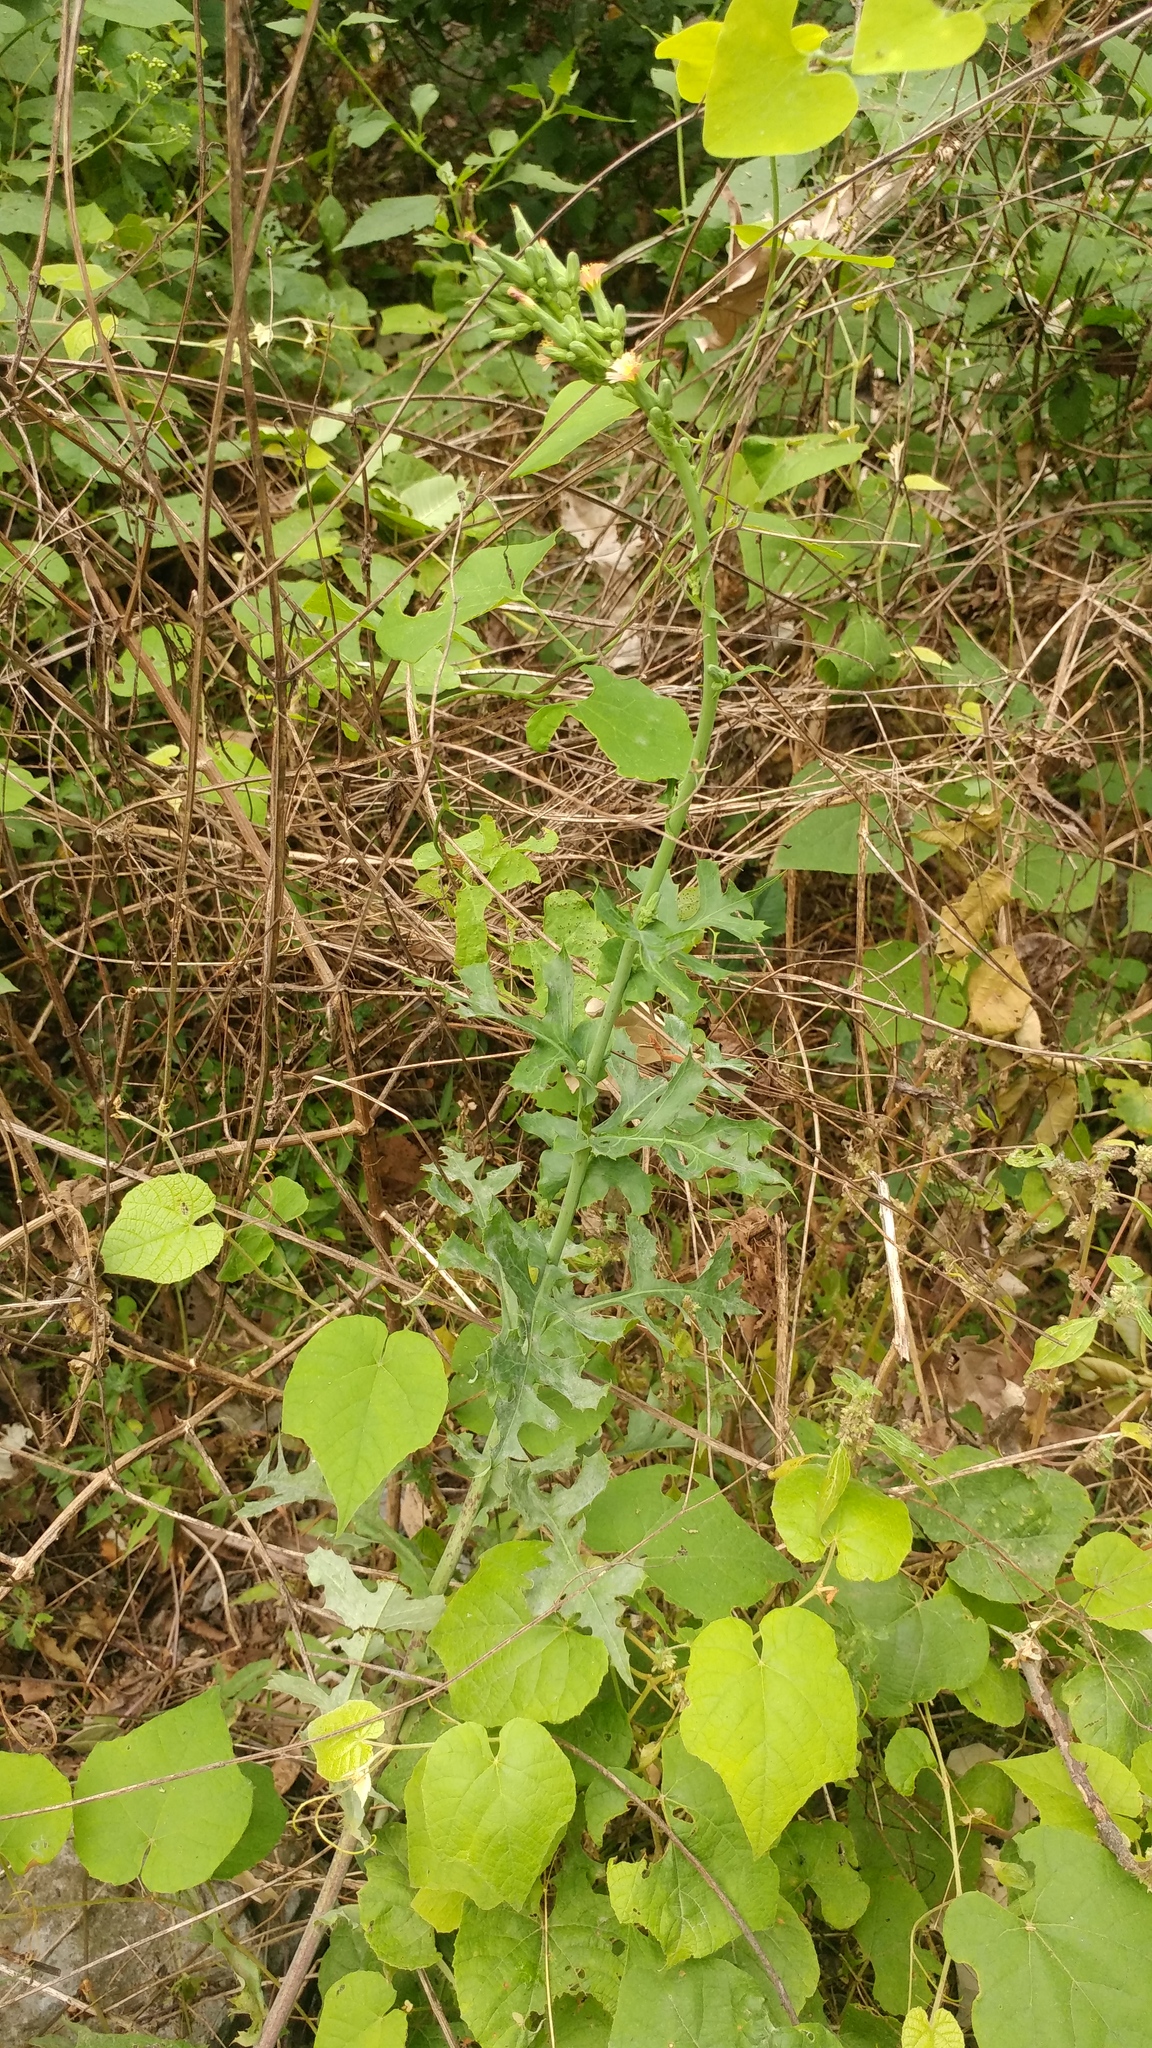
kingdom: Plantae
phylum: Tracheophyta
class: Magnoliopsida
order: Asterales
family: Asteraceae
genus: Lactuca
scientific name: Lactuca serriola
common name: Prickly lettuce
